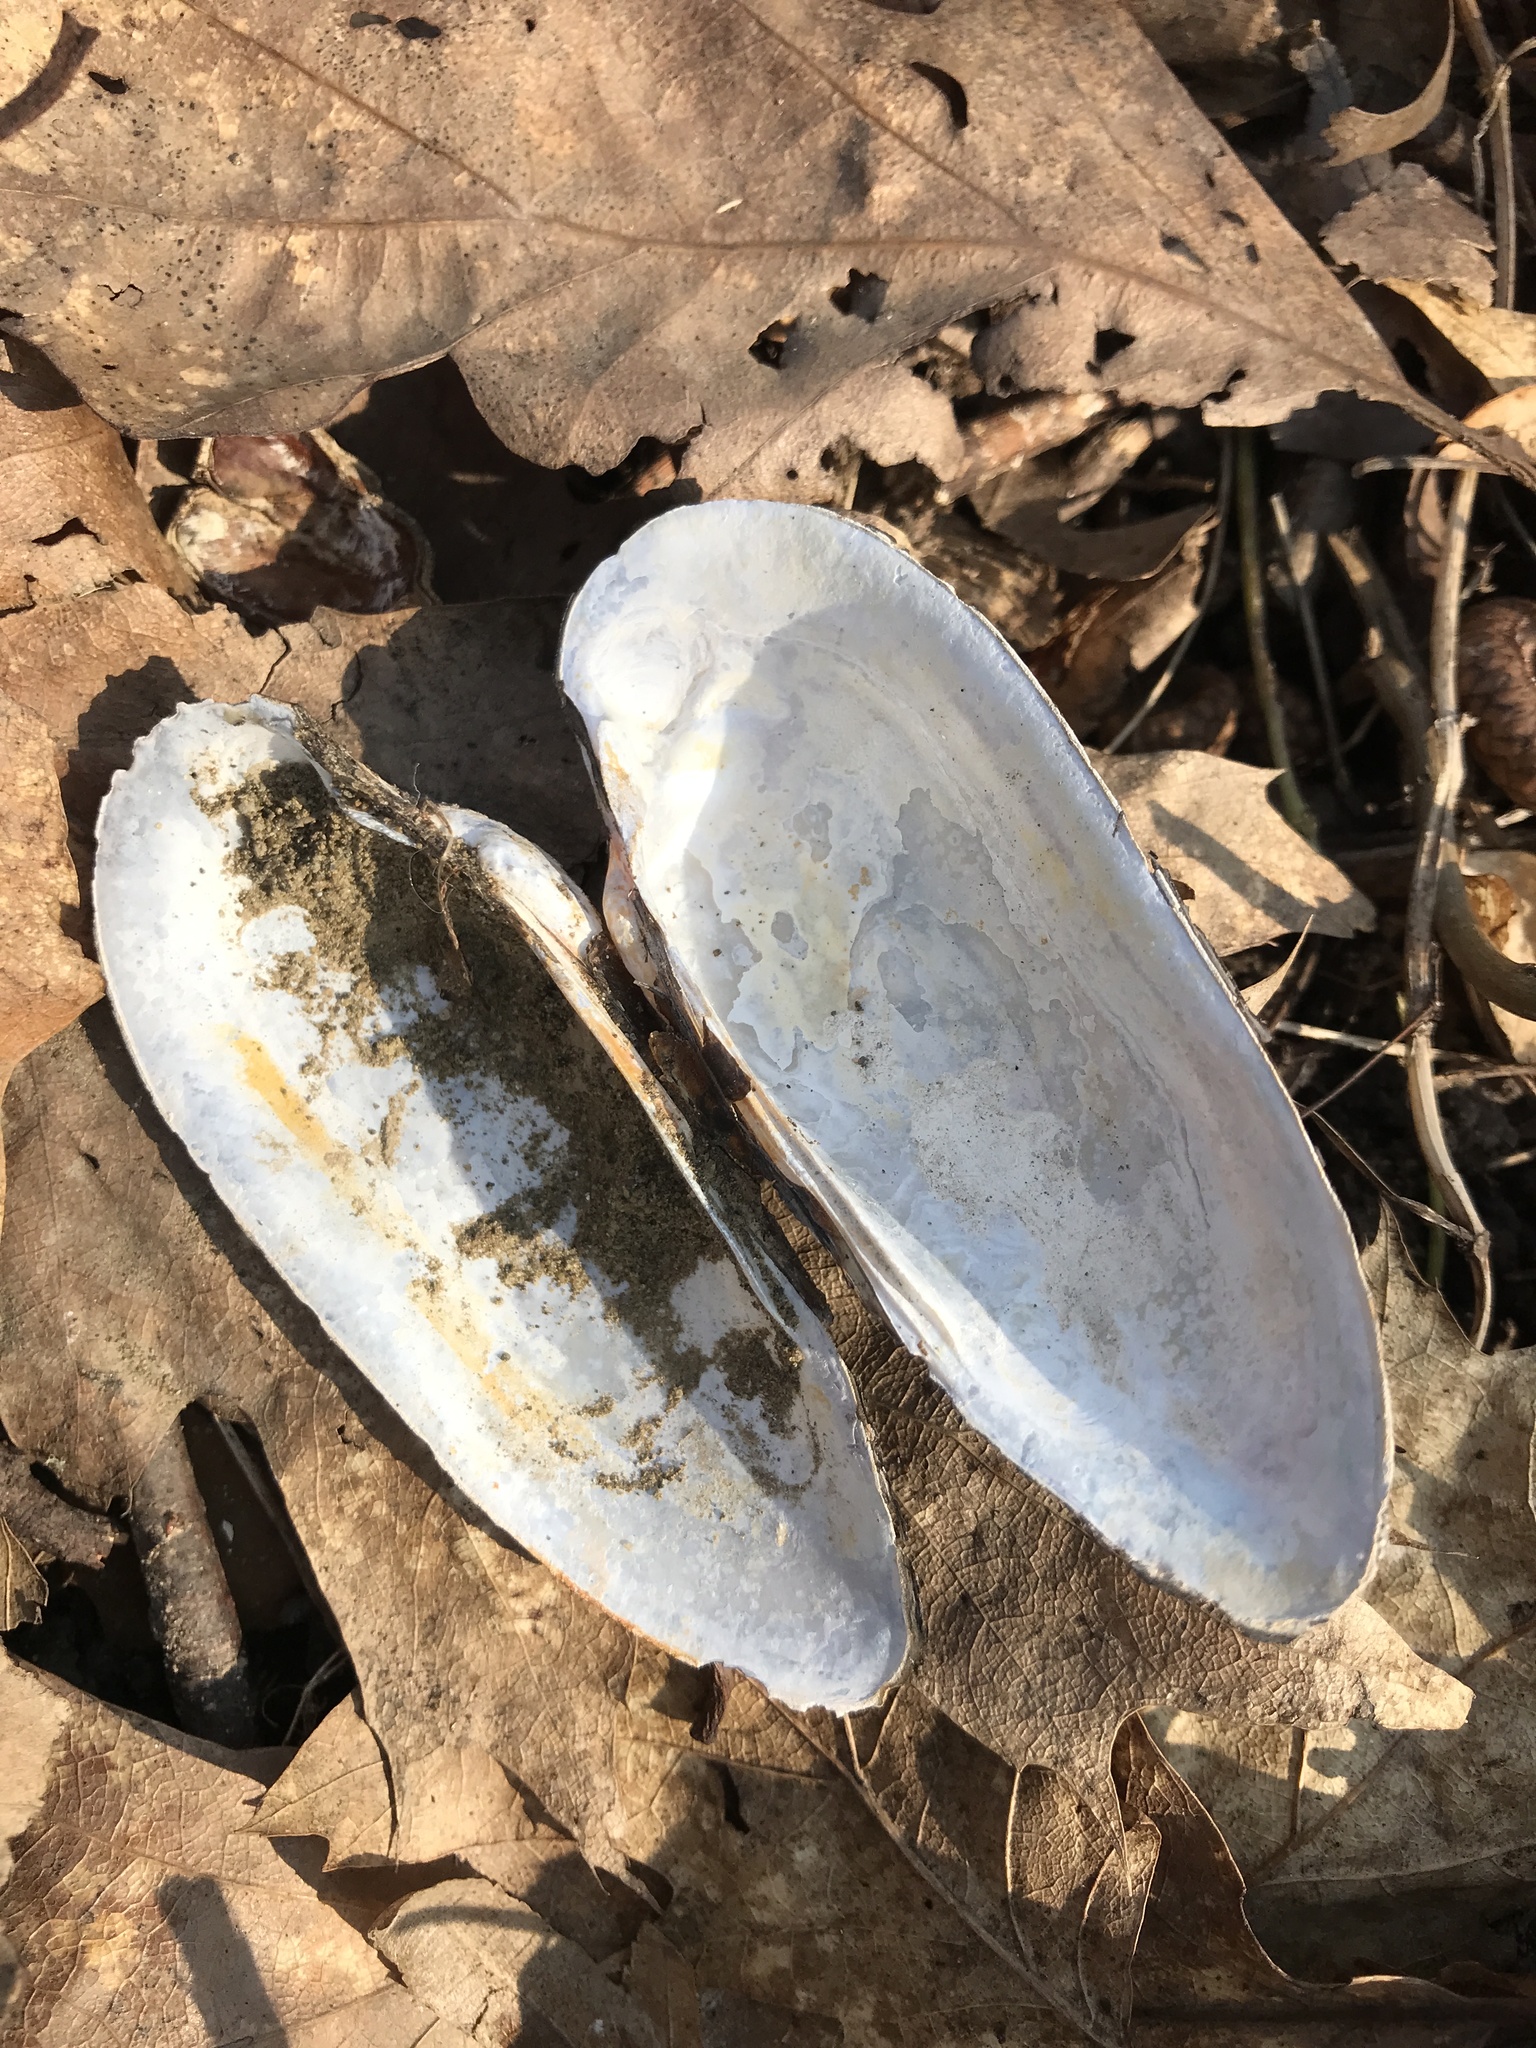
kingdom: Animalia
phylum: Mollusca
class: Bivalvia
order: Unionida
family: Unionidae
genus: Unio
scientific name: Unio pictorum
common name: Painter's mussel
